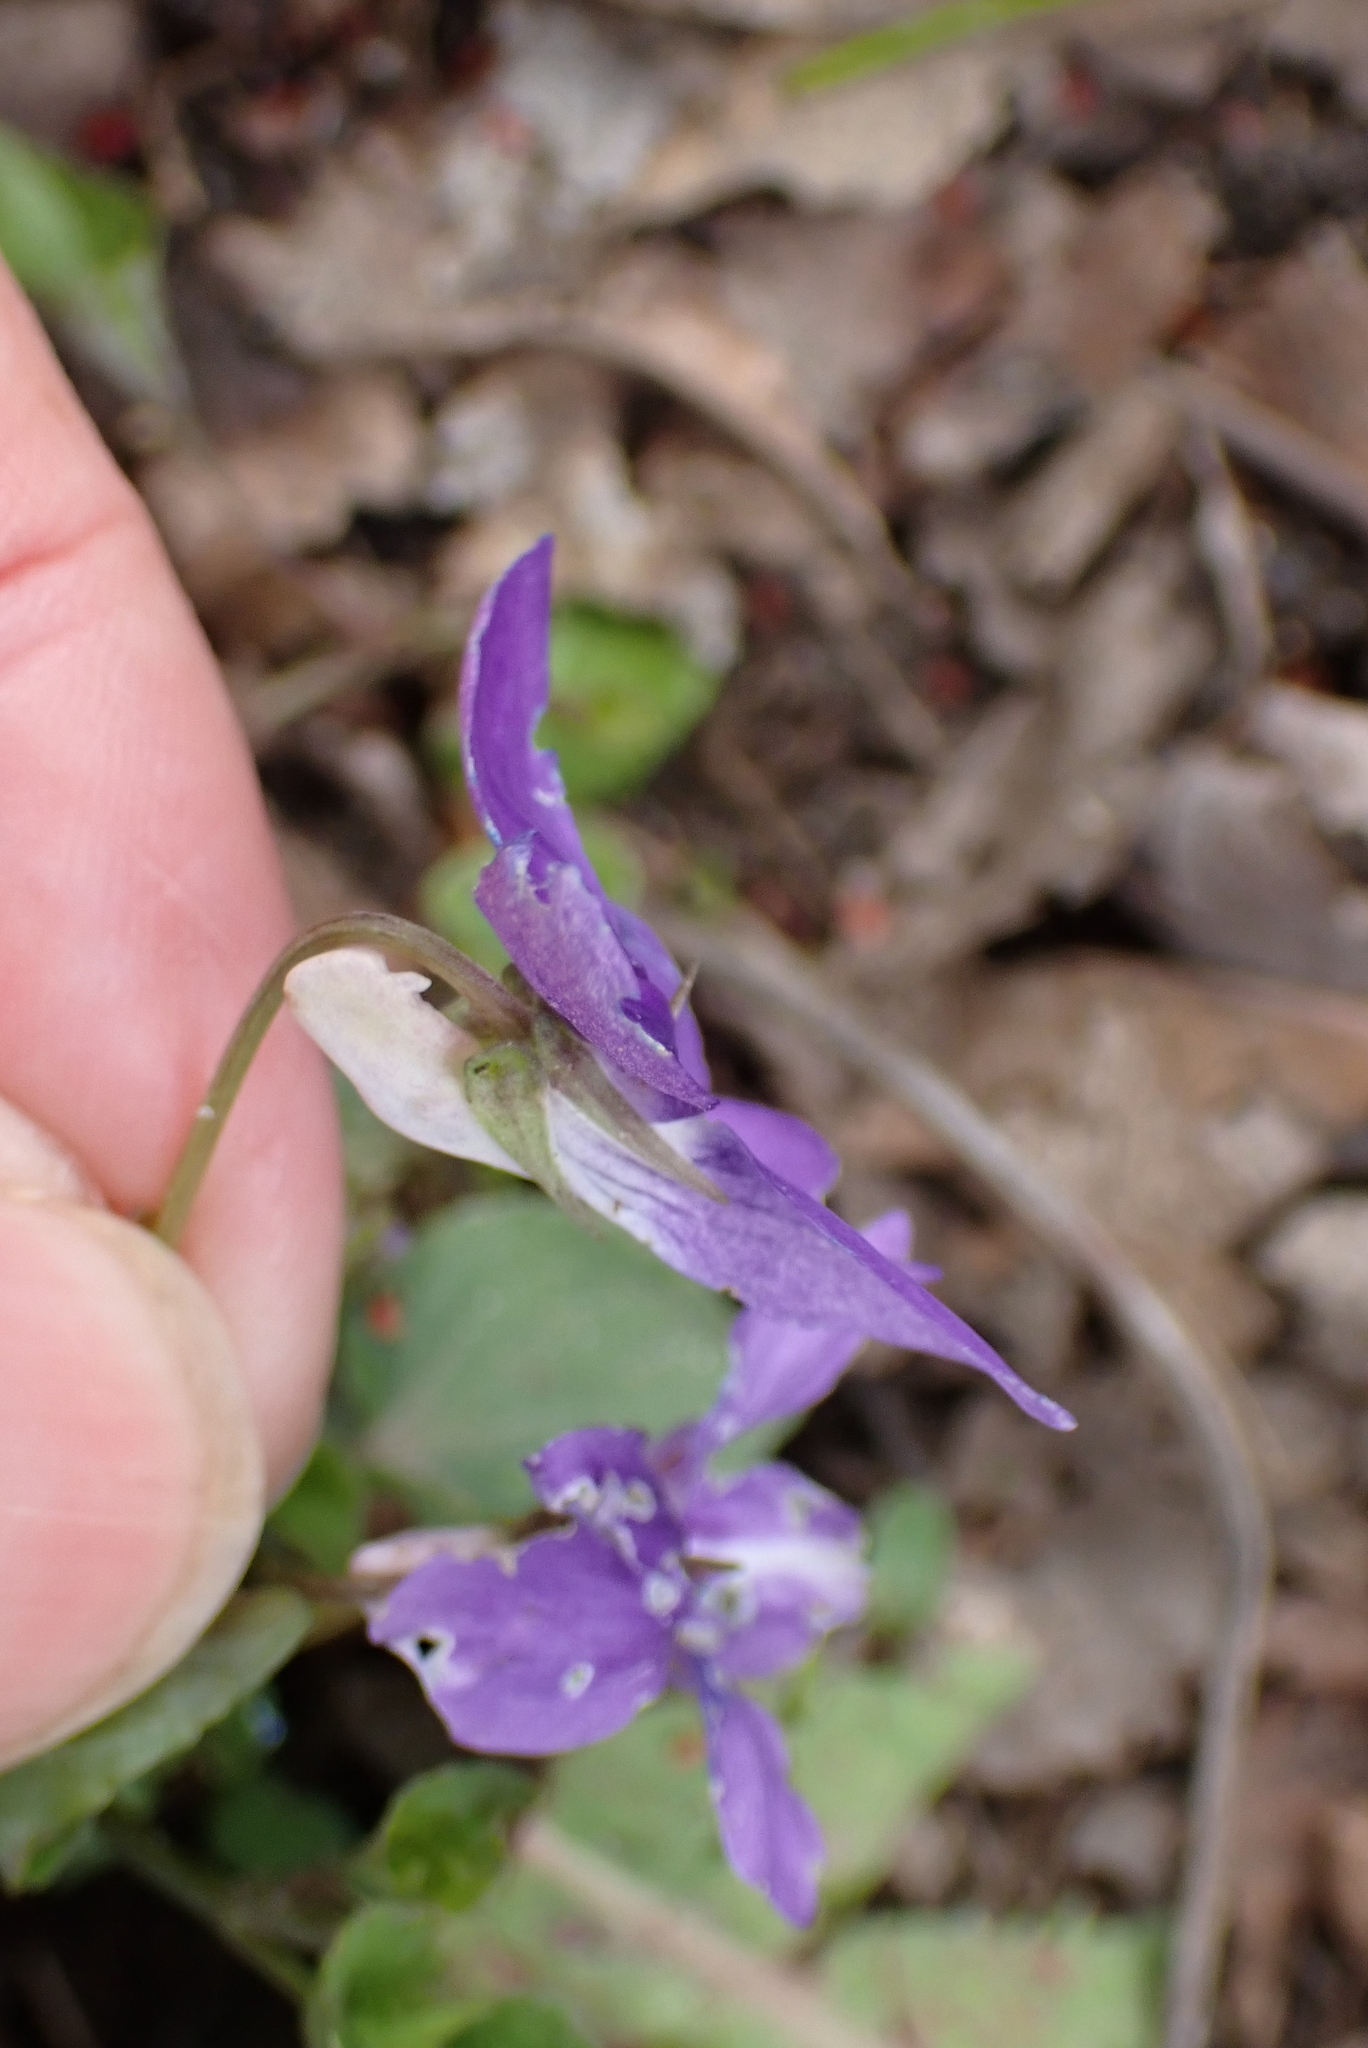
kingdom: Plantae
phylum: Tracheophyta
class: Magnoliopsida
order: Malpighiales
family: Violaceae
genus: Viola
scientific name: Viola riviniana
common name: Common dog-violet
